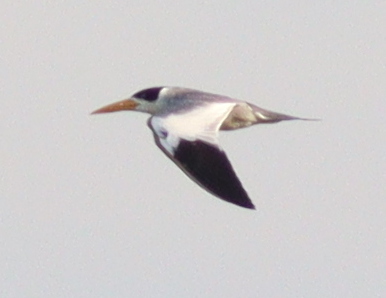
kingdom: Animalia
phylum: Chordata
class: Aves
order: Charadriiformes
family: Laridae
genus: Phaetusa
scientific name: Phaetusa simplex
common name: Large-billed tern
